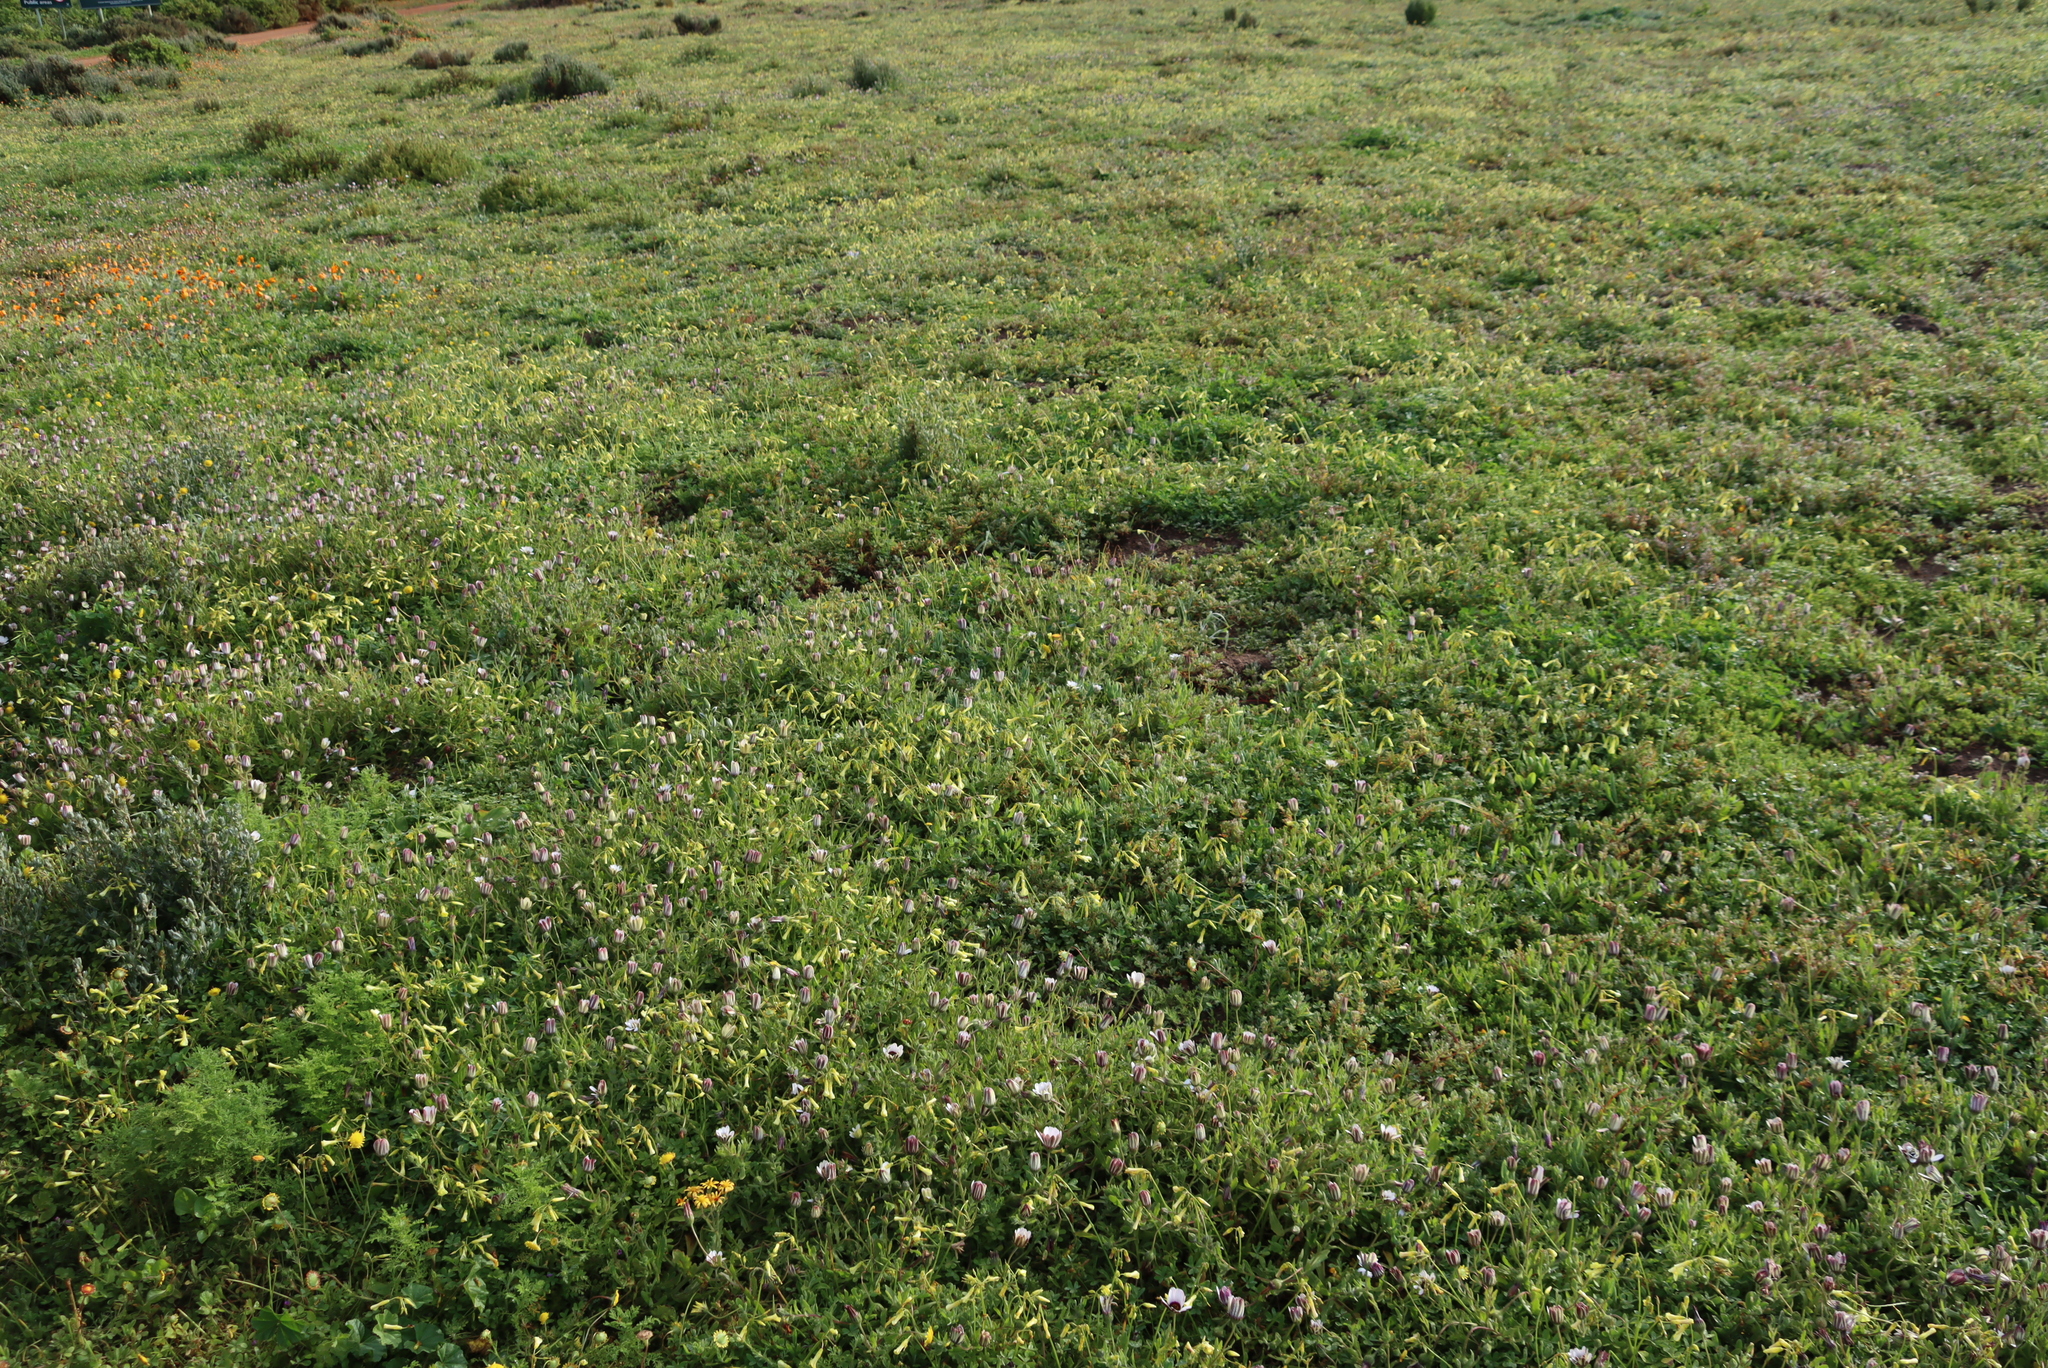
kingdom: Plantae
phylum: Tracheophyta
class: Magnoliopsida
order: Oxalidales
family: Oxalidaceae
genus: Oxalis
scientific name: Oxalis pes-caprae
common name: Bermuda-buttercup
